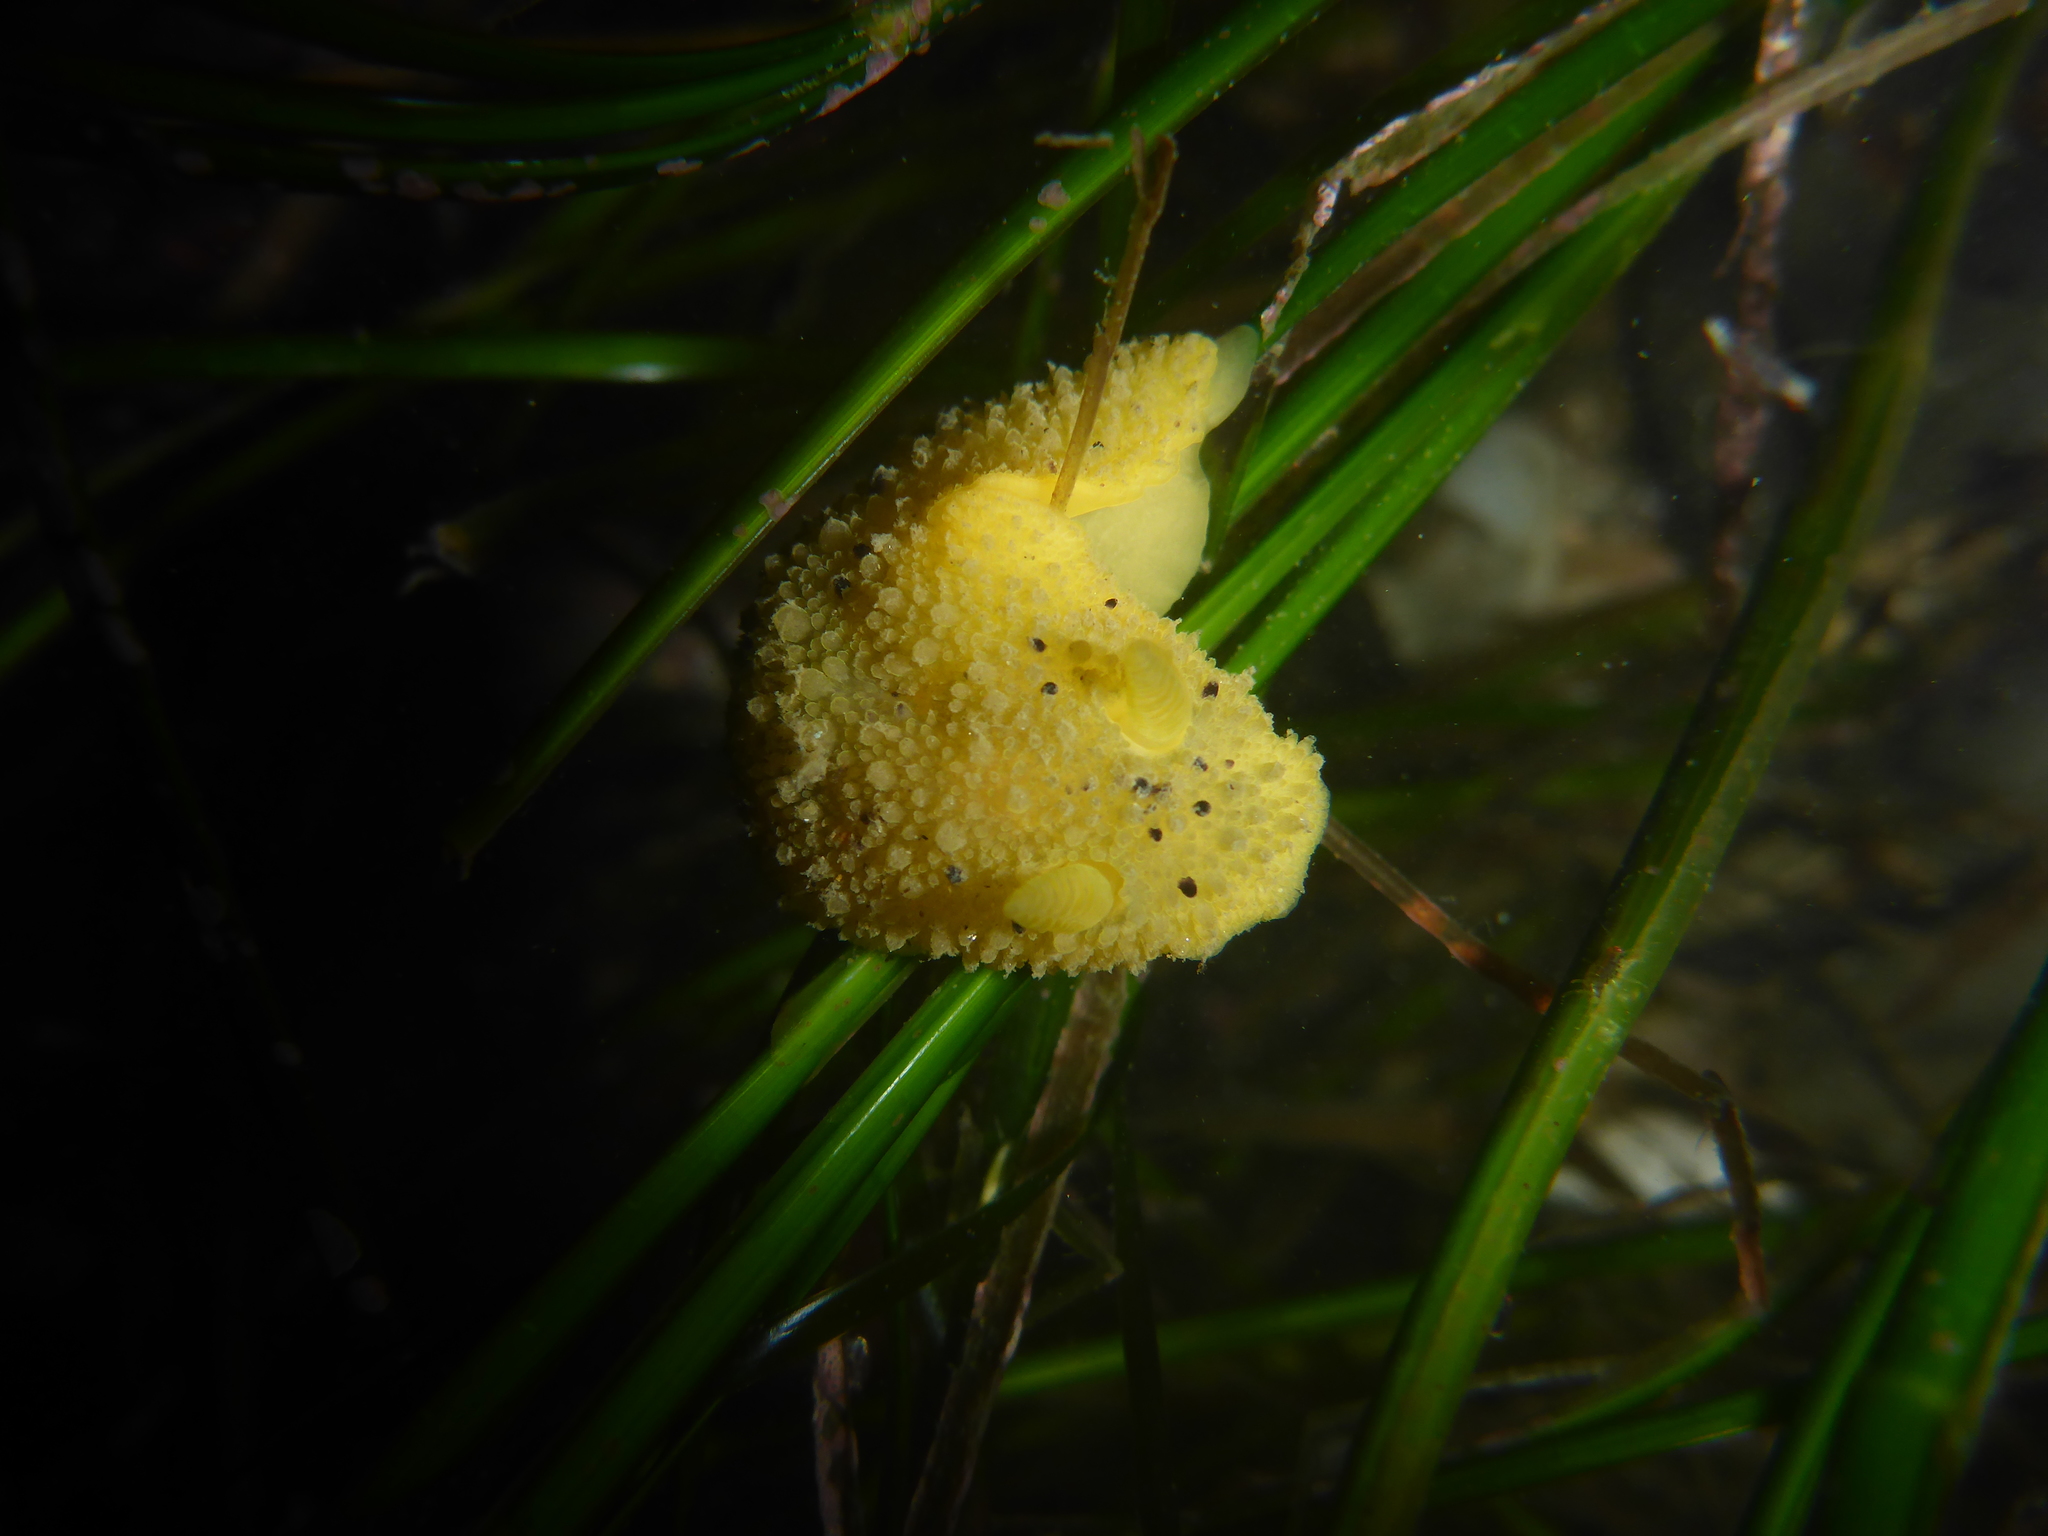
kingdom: Animalia
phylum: Mollusca
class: Gastropoda
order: Nudibranchia
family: Dorididae
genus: Doris
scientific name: Doris montereyensis
